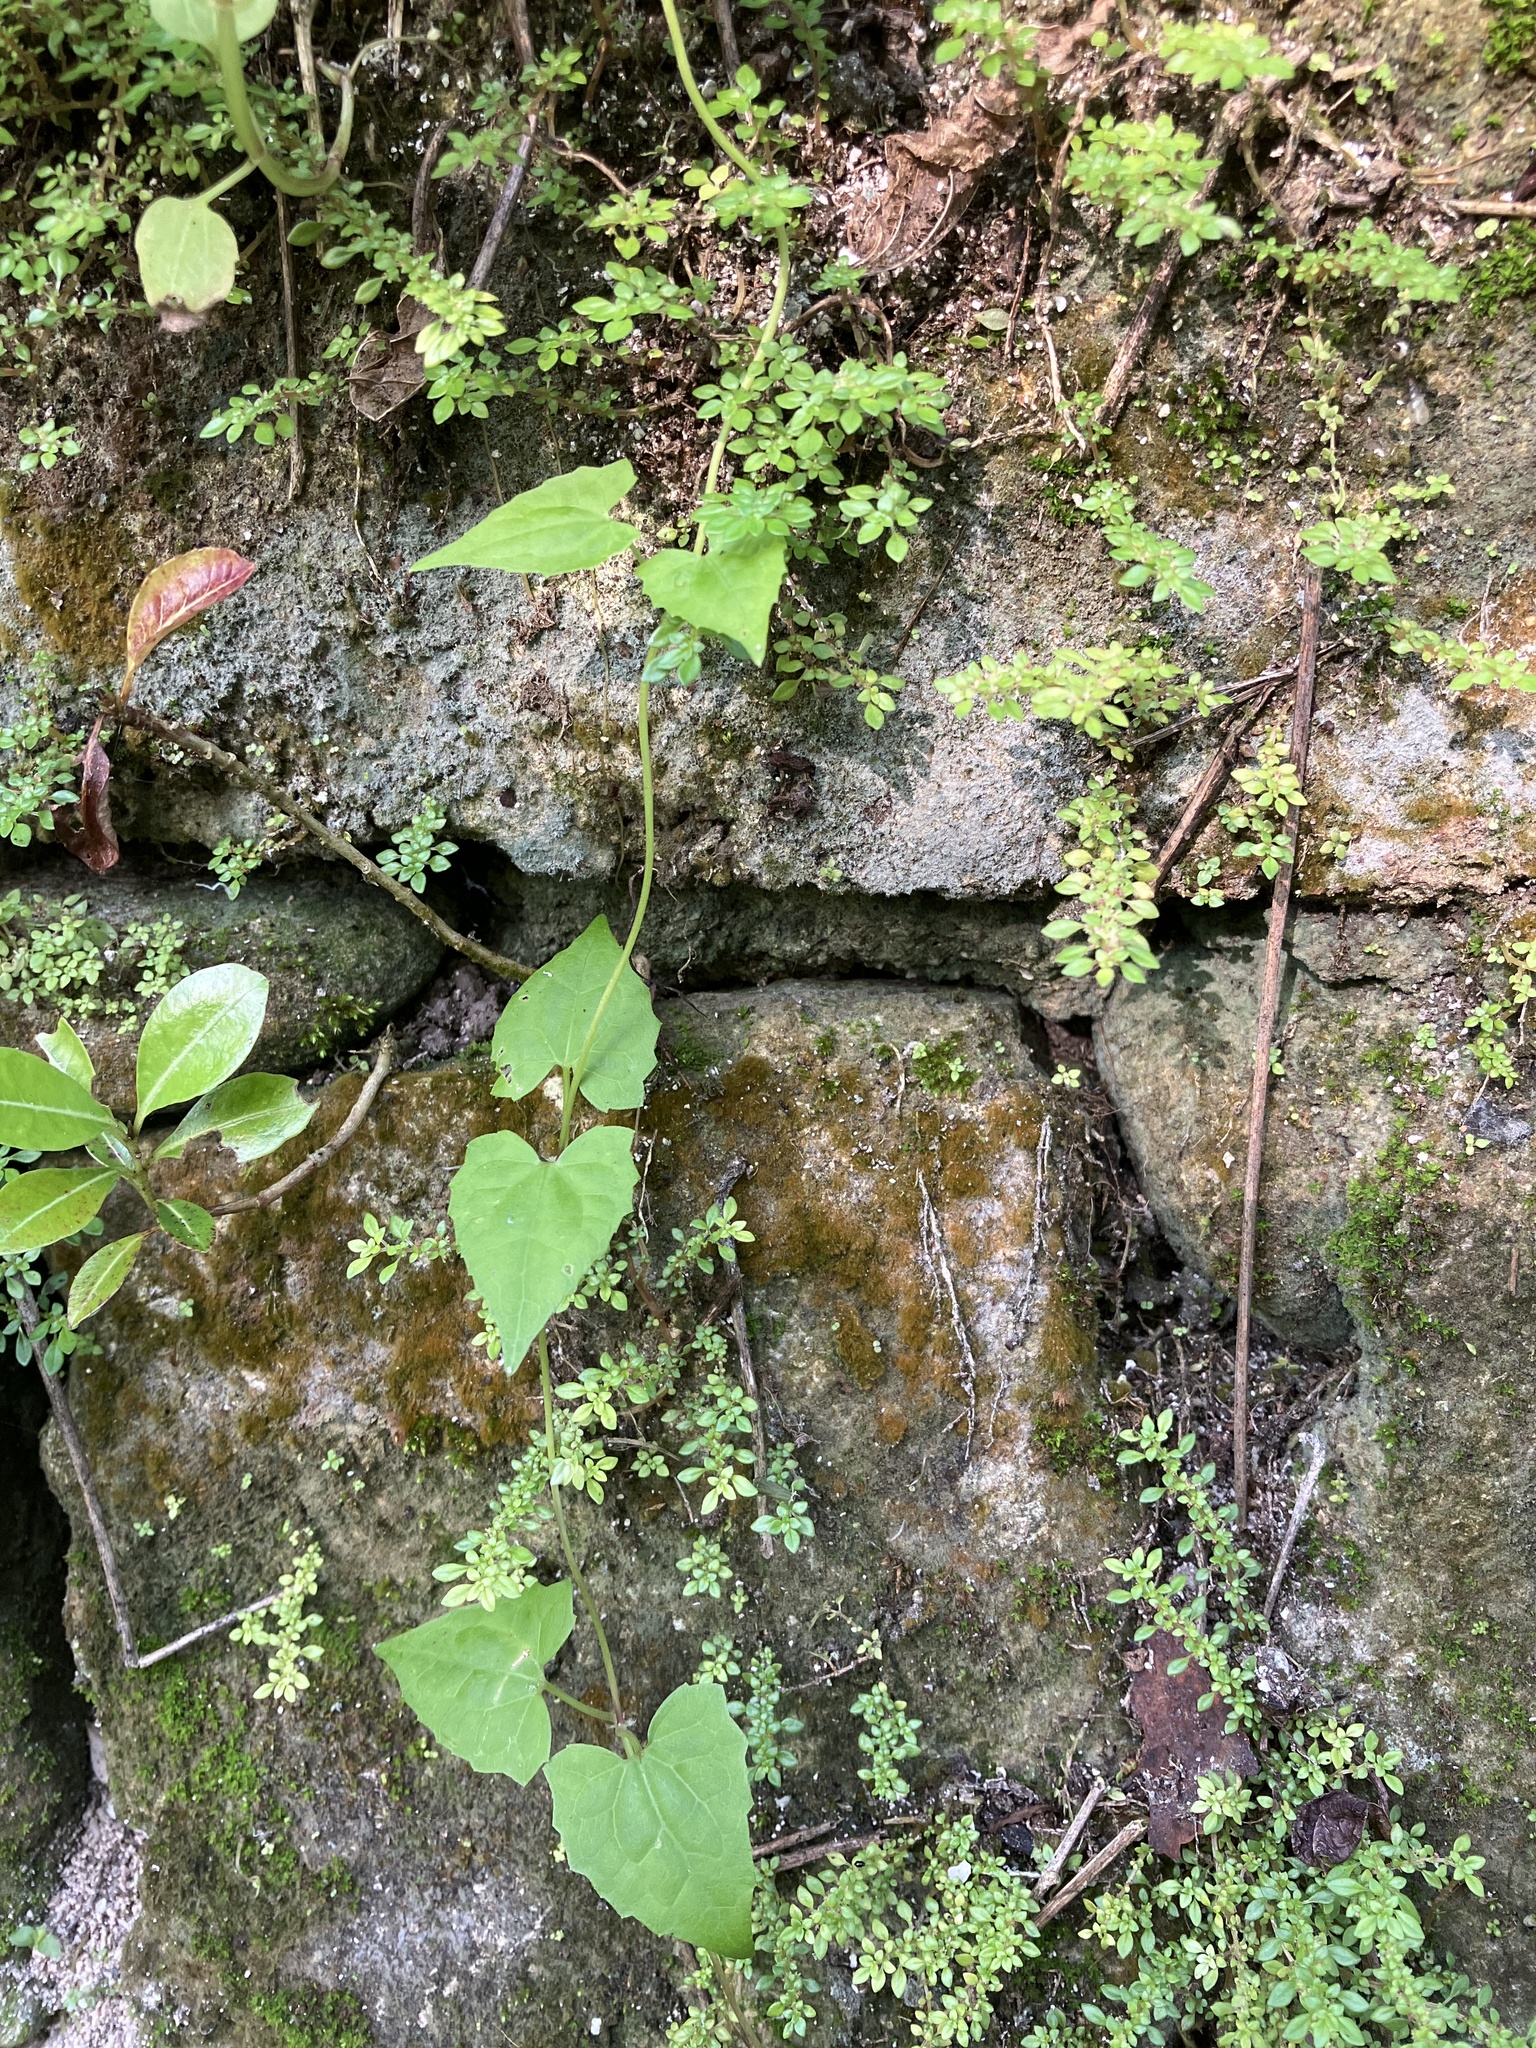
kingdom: Plantae
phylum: Tracheophyta
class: Magnoliopsida
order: Asterales
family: Asteraceae
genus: Mikania
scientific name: Mikania micrantha
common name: Mile-a-minute
